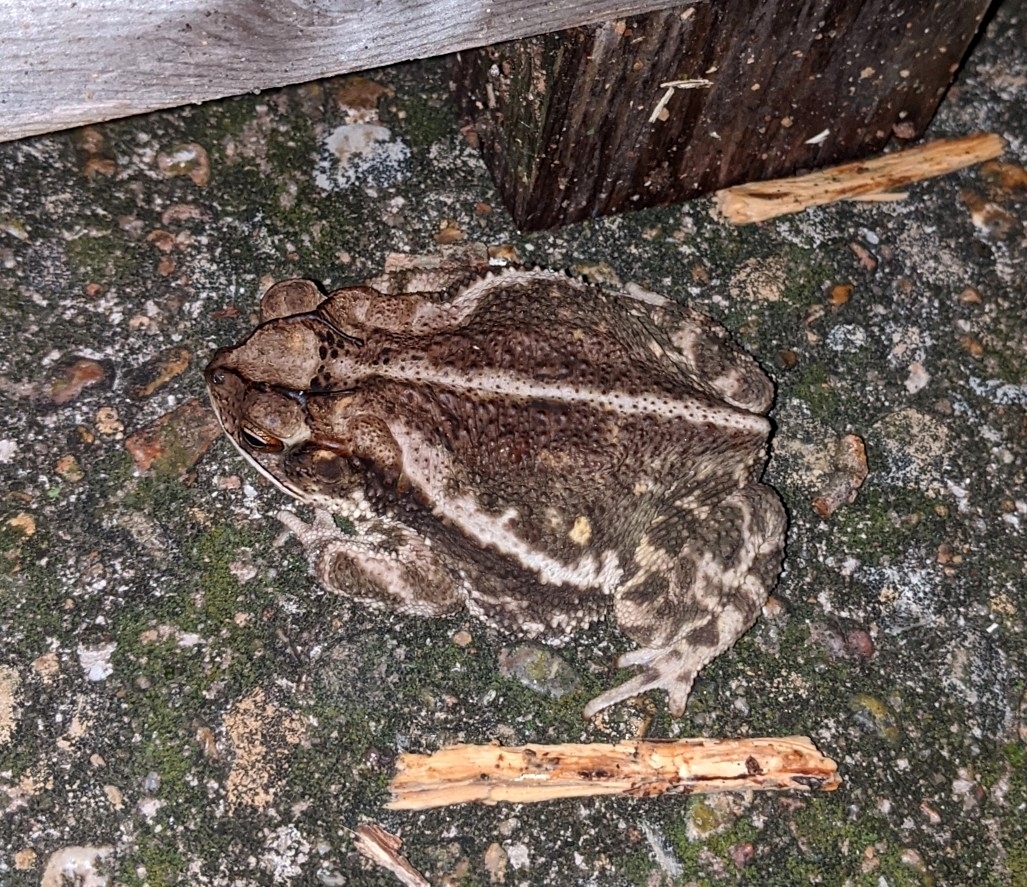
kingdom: Animalia
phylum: Chordata
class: Amphibia
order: Anura
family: Bufonidae
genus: Incilius
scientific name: Incilius nebulifer
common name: Gulf coast toad
